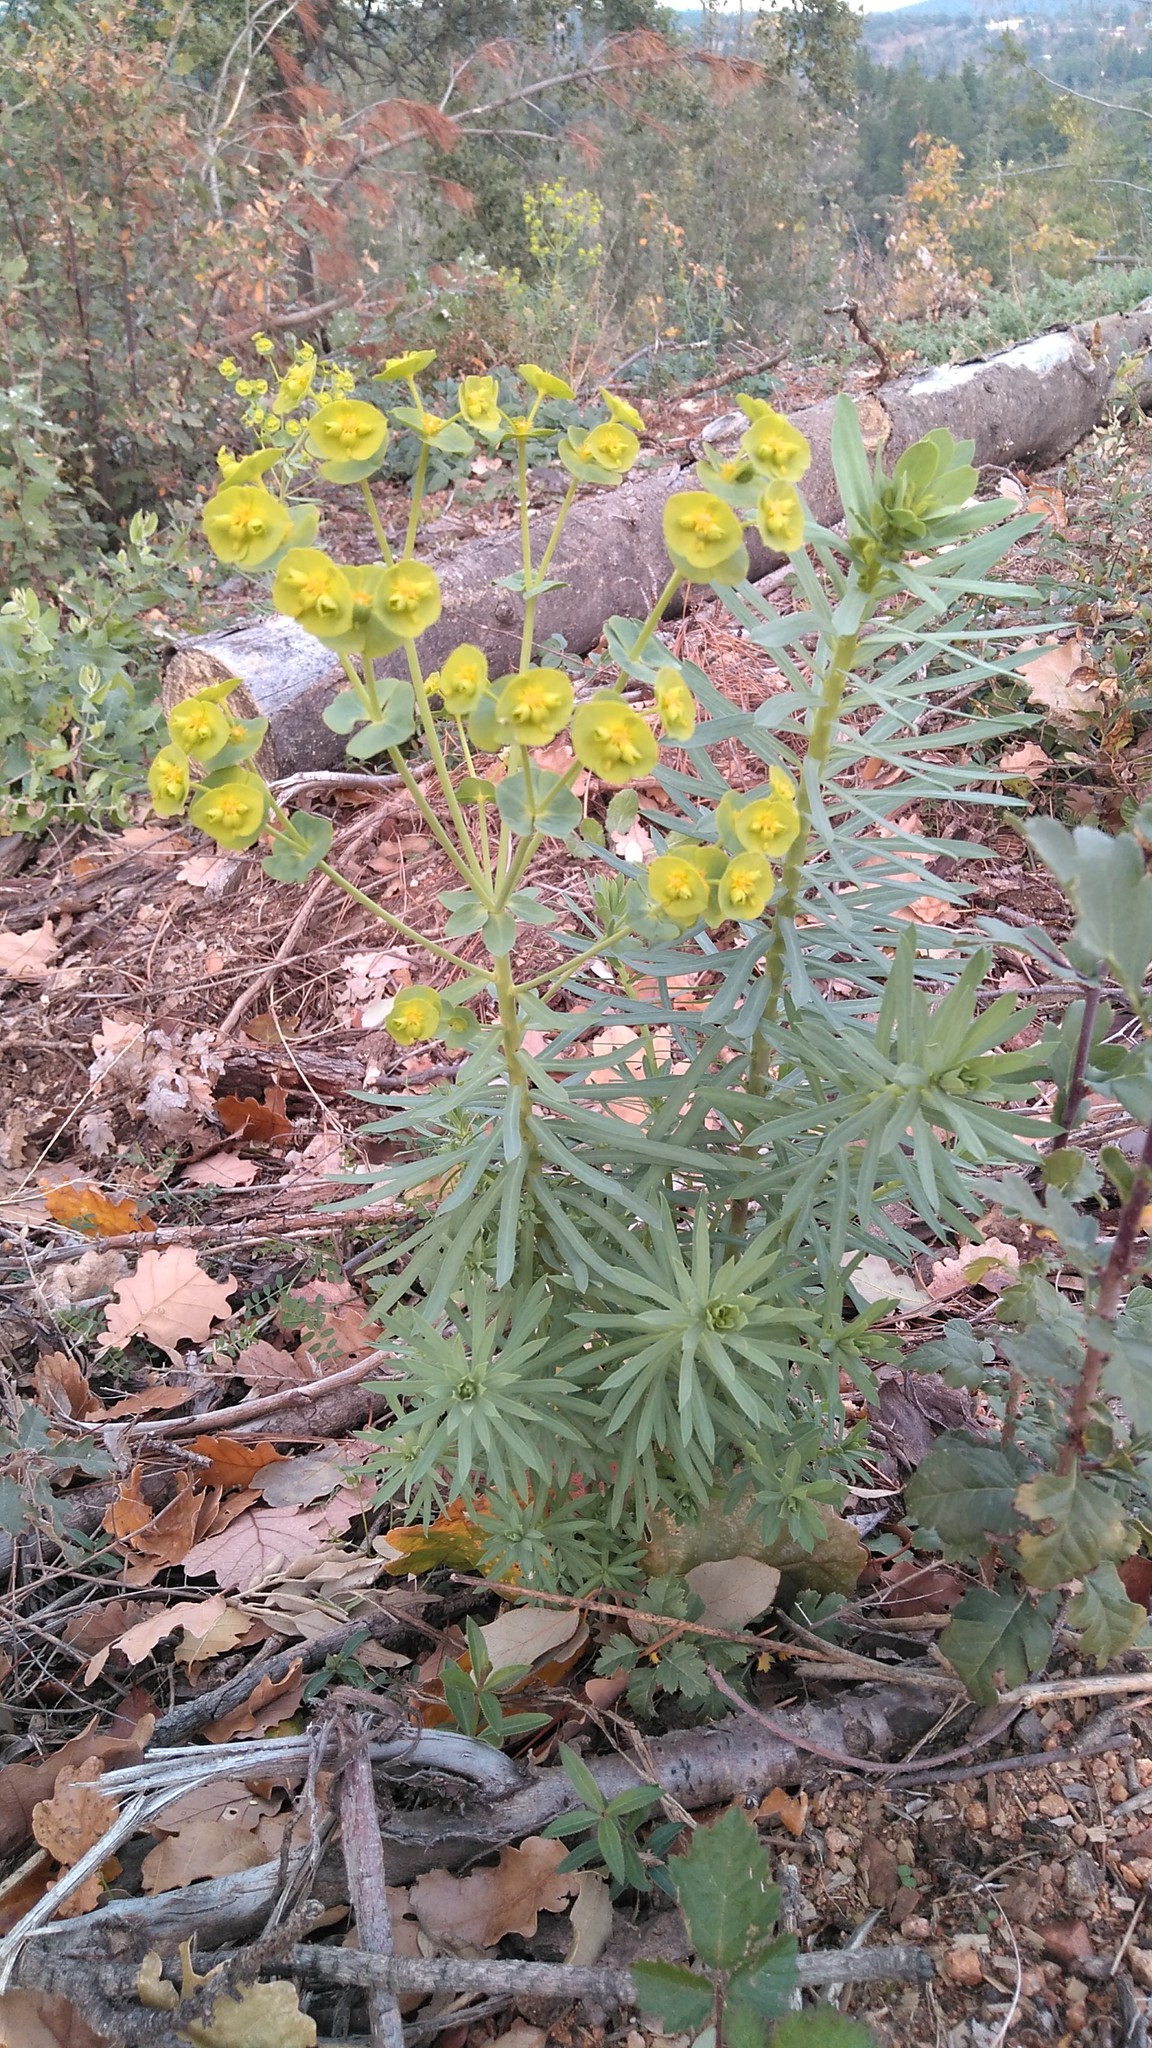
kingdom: Plantae
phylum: Tracheophyta
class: Magnoliopsida
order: Malpighiales
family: Euphorbiaceae
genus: Euphorbia
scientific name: Euphorbia segetalis
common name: Corn spurge
